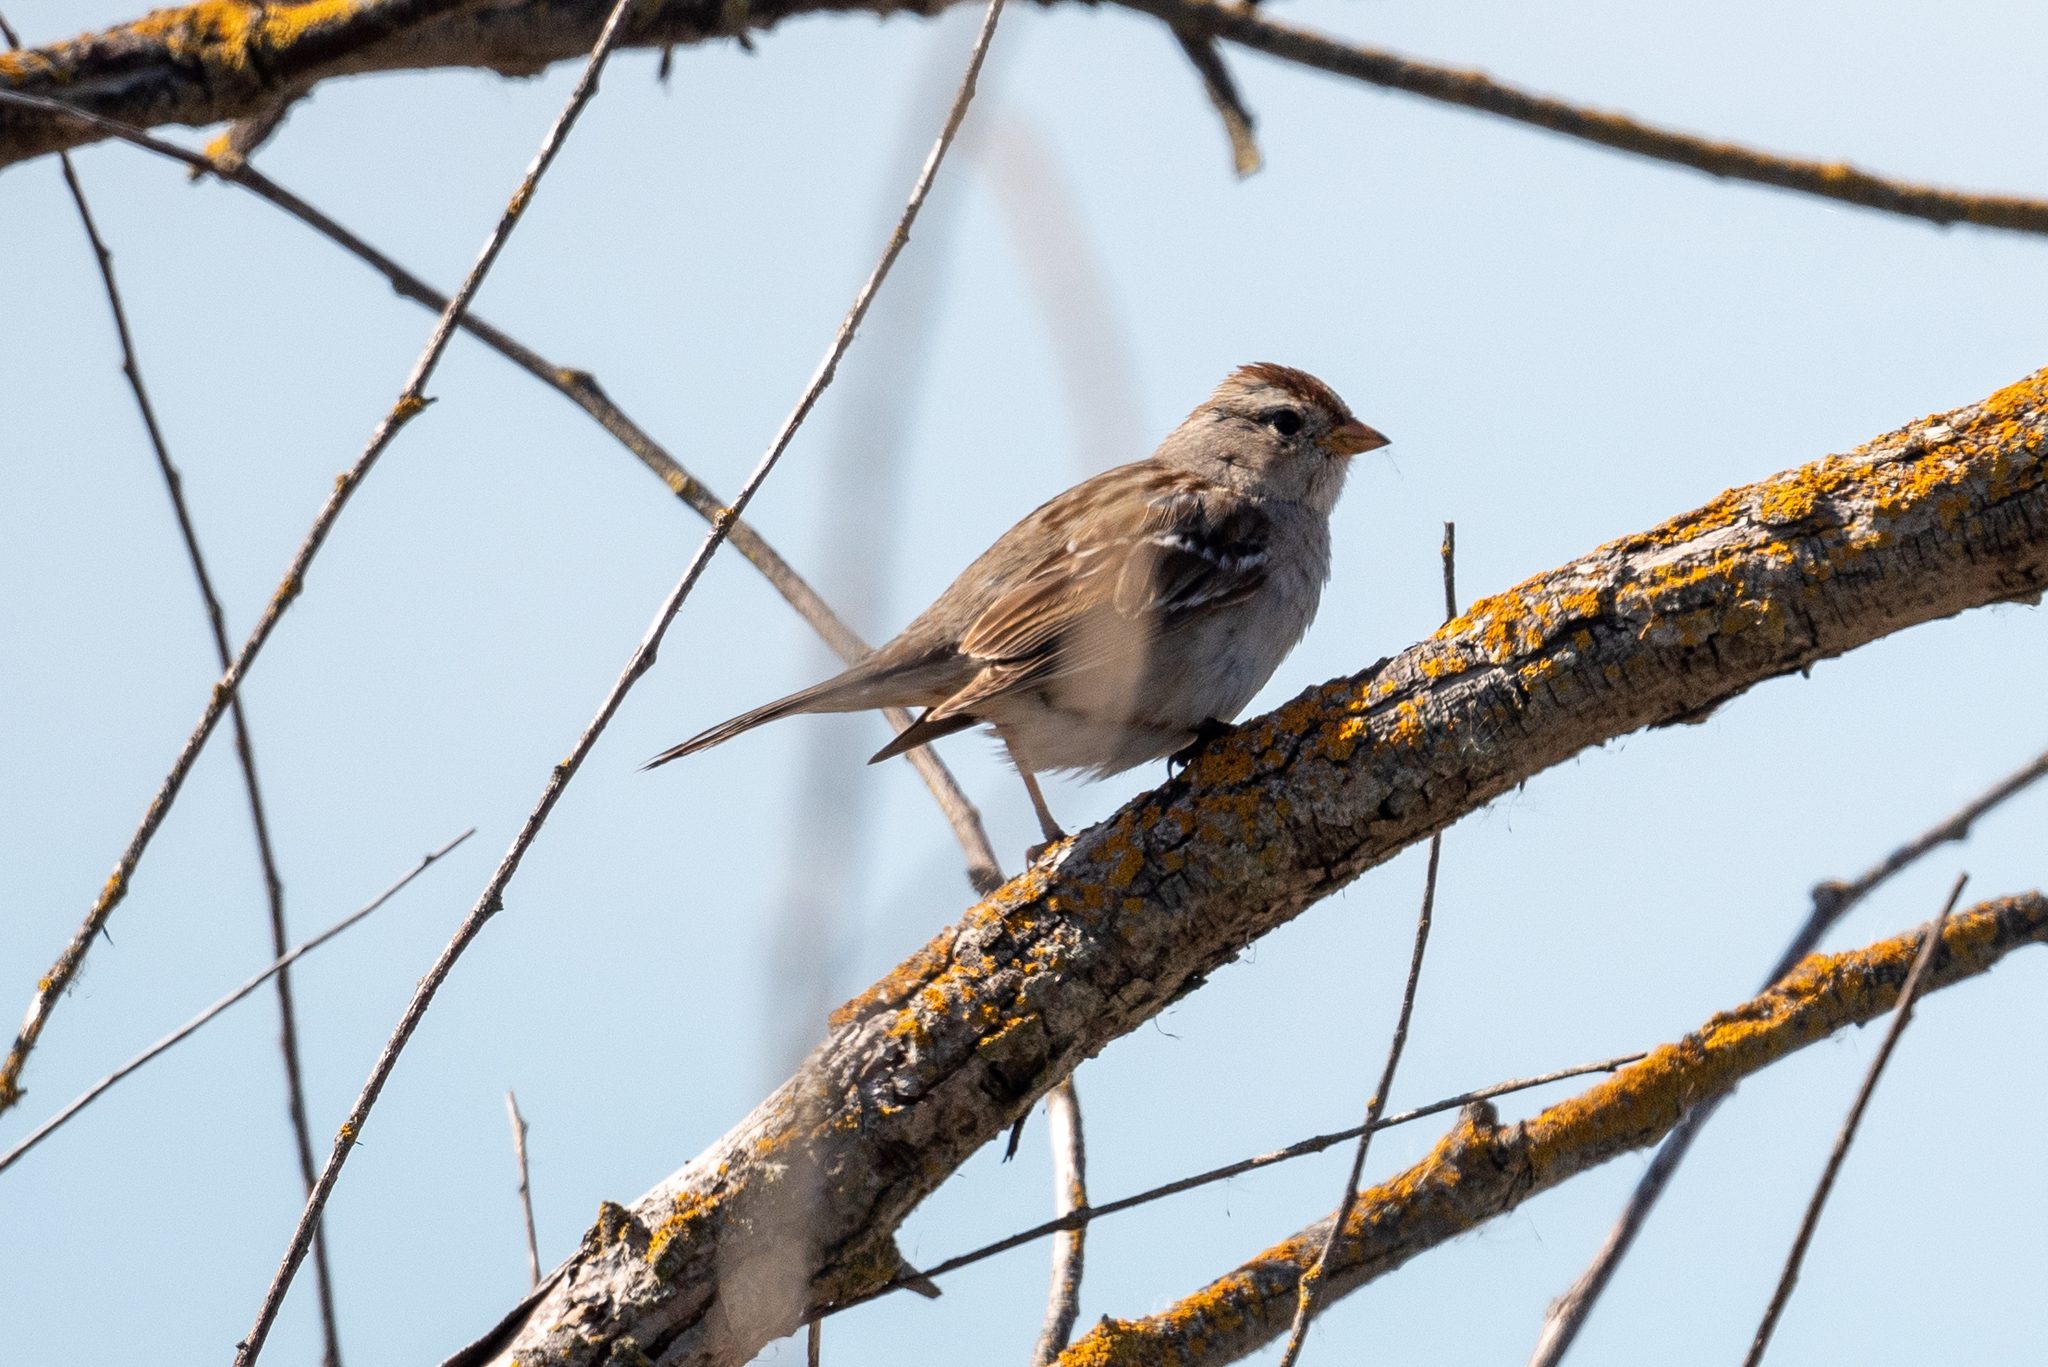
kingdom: Animalia
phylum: Chordata
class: Aves
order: Passeriformes
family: Passerellidae
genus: Zonotrichia
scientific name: Zonotrichia leucophrys
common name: White-crowned sparrow
